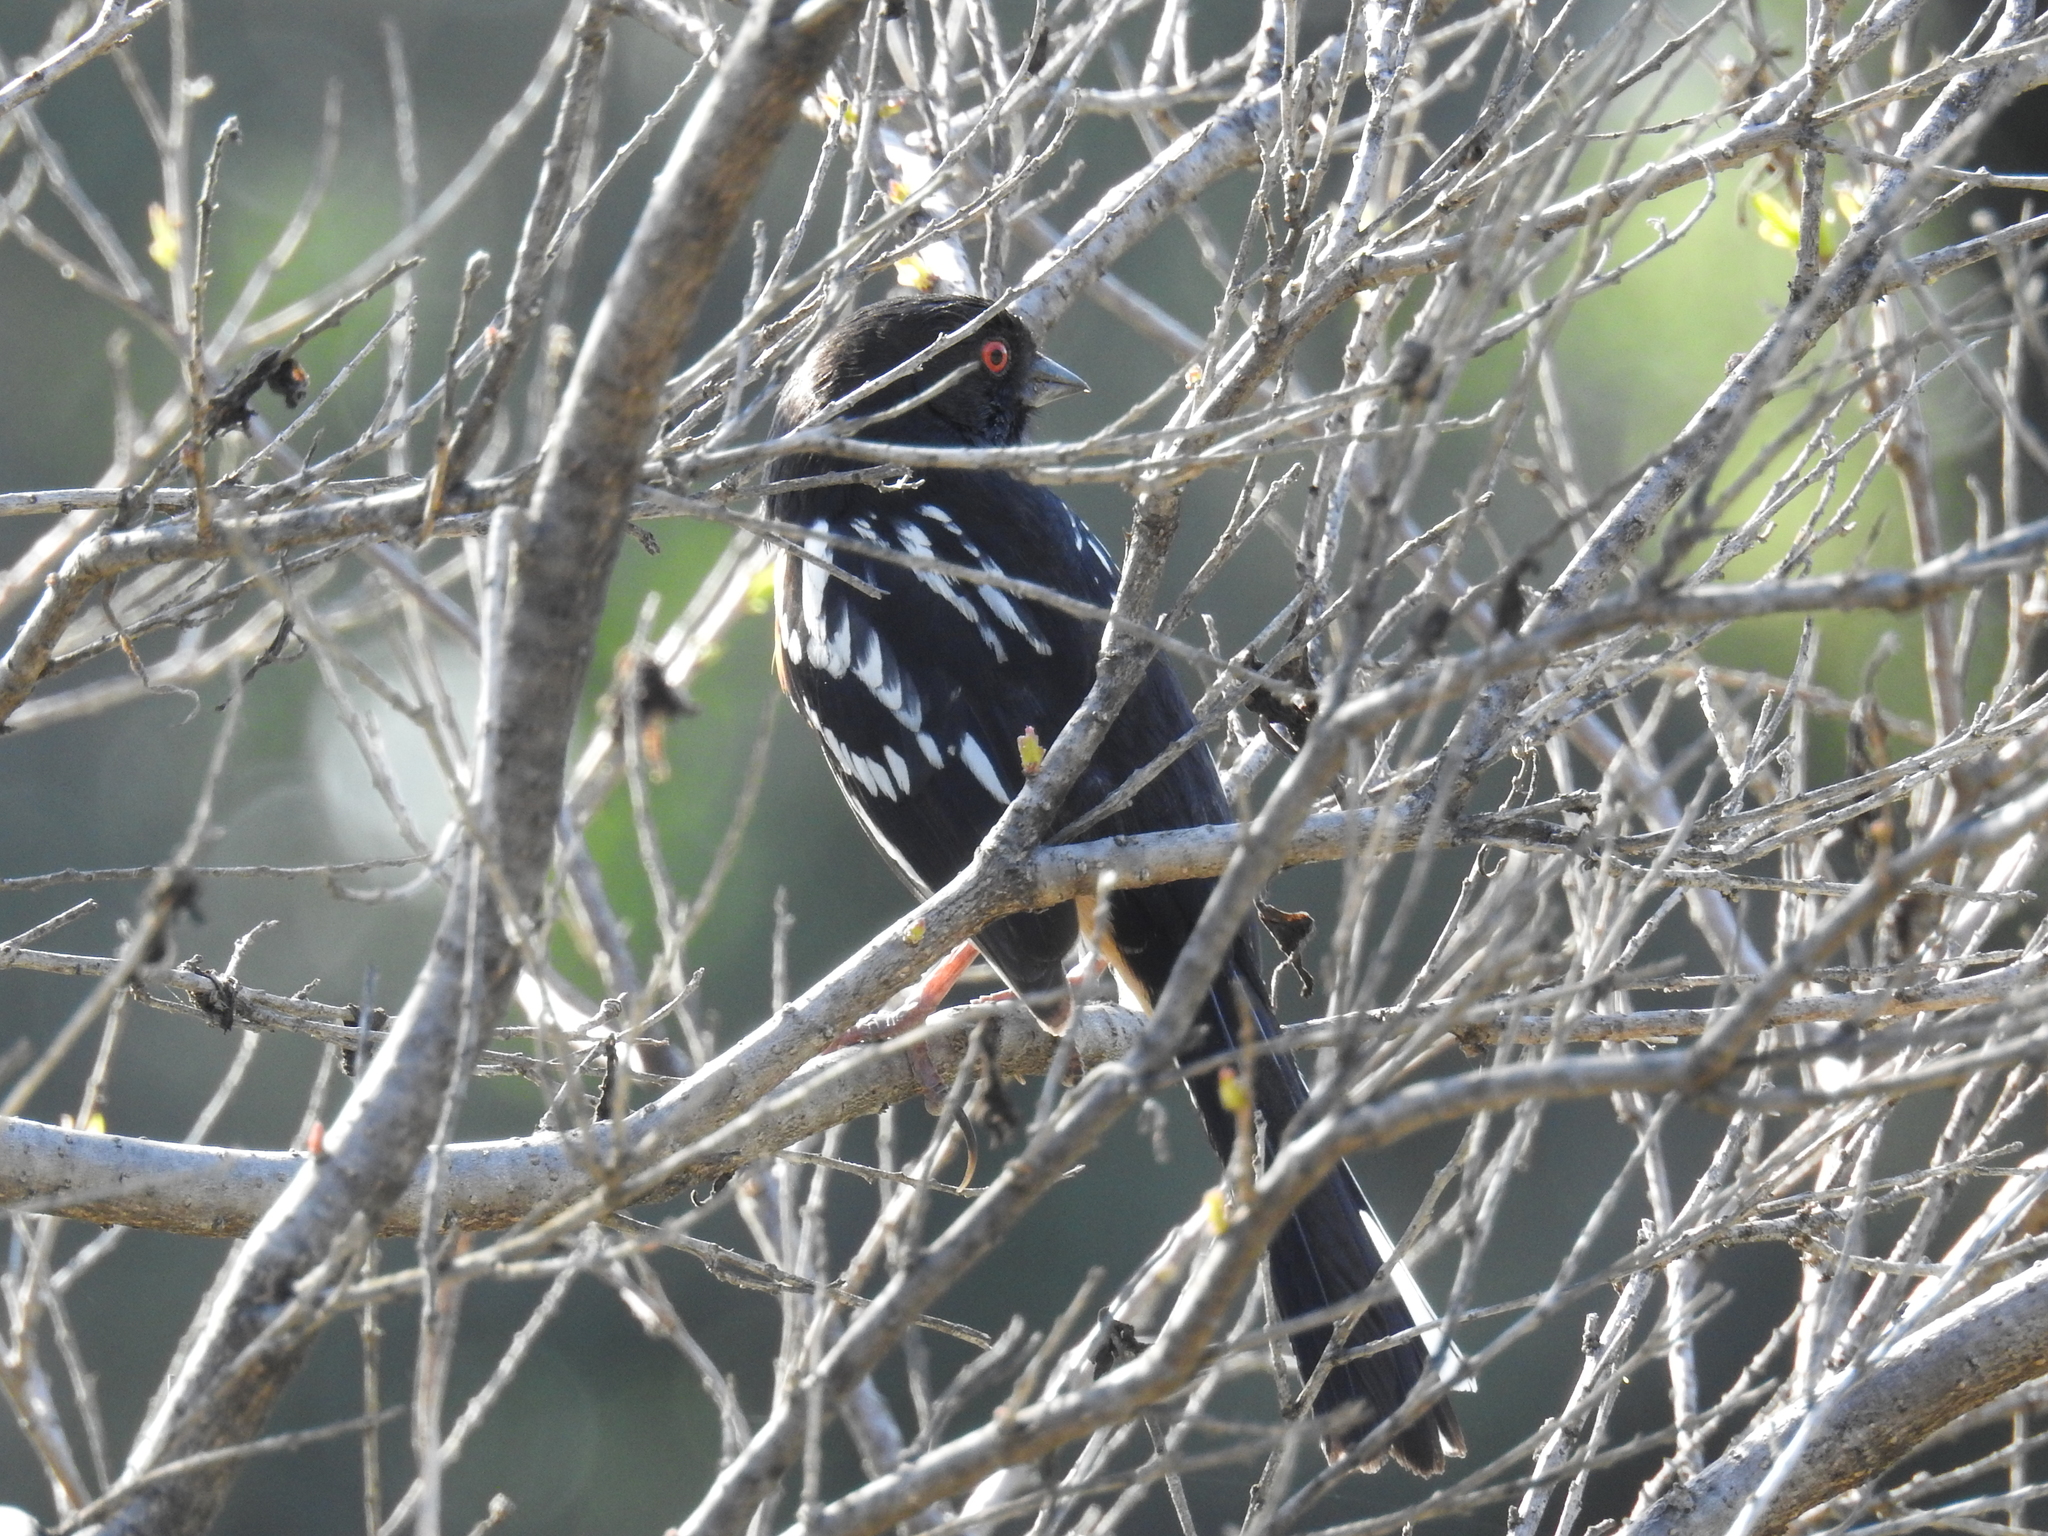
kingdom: Animalia
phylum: Chordata
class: Aves
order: Passeriformes
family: Passerellidae
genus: Pipilo
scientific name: Pipilo maculatus
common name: Spotted towhee
